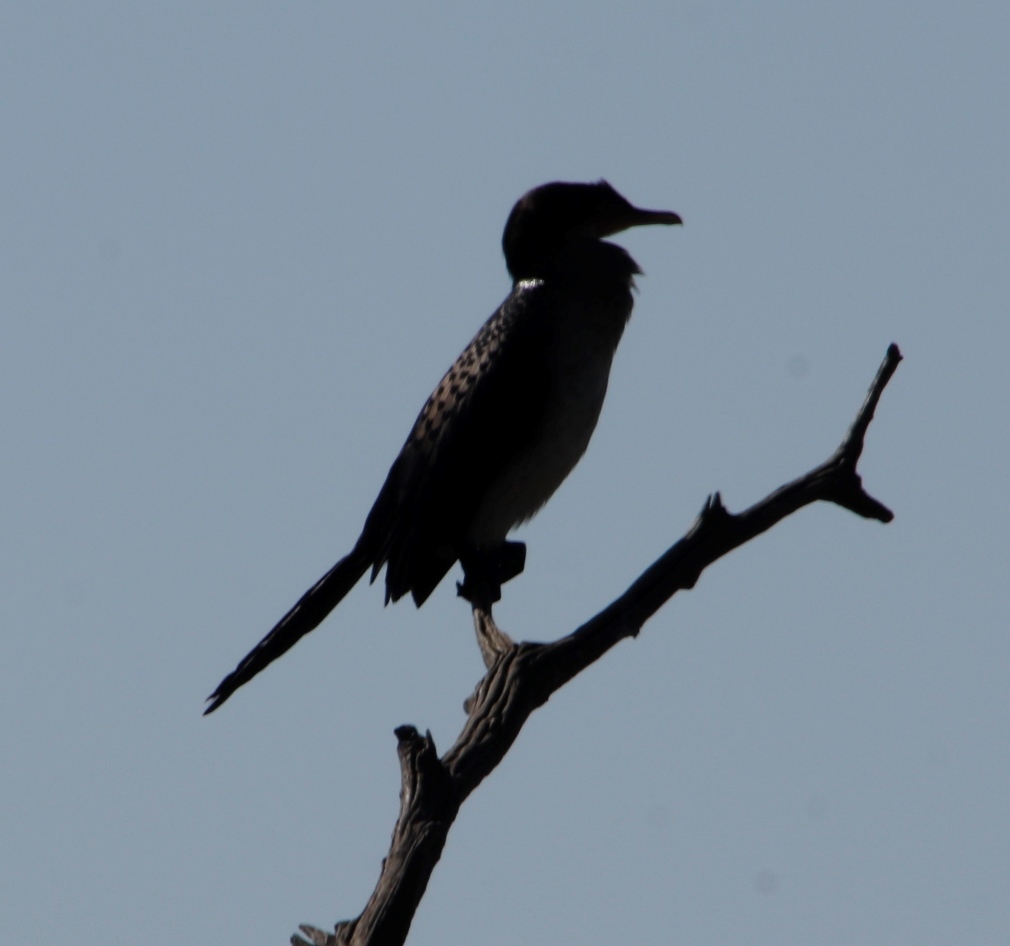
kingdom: Animalia
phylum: Chordata
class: Aves
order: Suliformes
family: Phalacrocoracidae
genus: Microcarbo
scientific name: Microcarbo africanus
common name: Long-tailed cormorant
